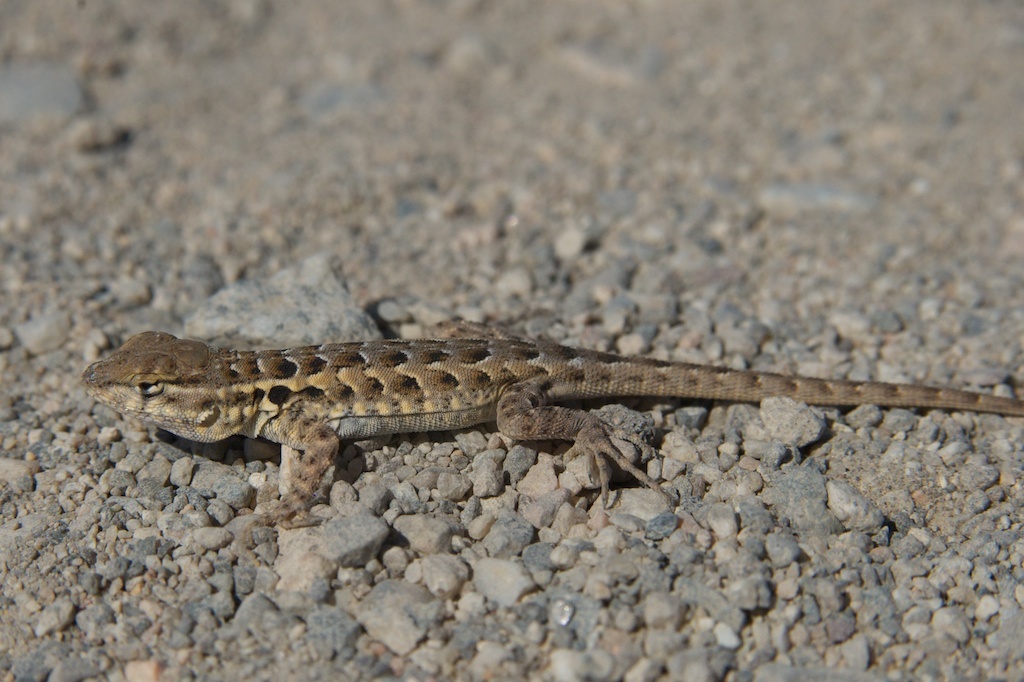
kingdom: Animalia
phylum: Chordata
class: Squamata
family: Phrynosomatidae
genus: Uta
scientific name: Uta stansburiana
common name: Side-blotched lizard
